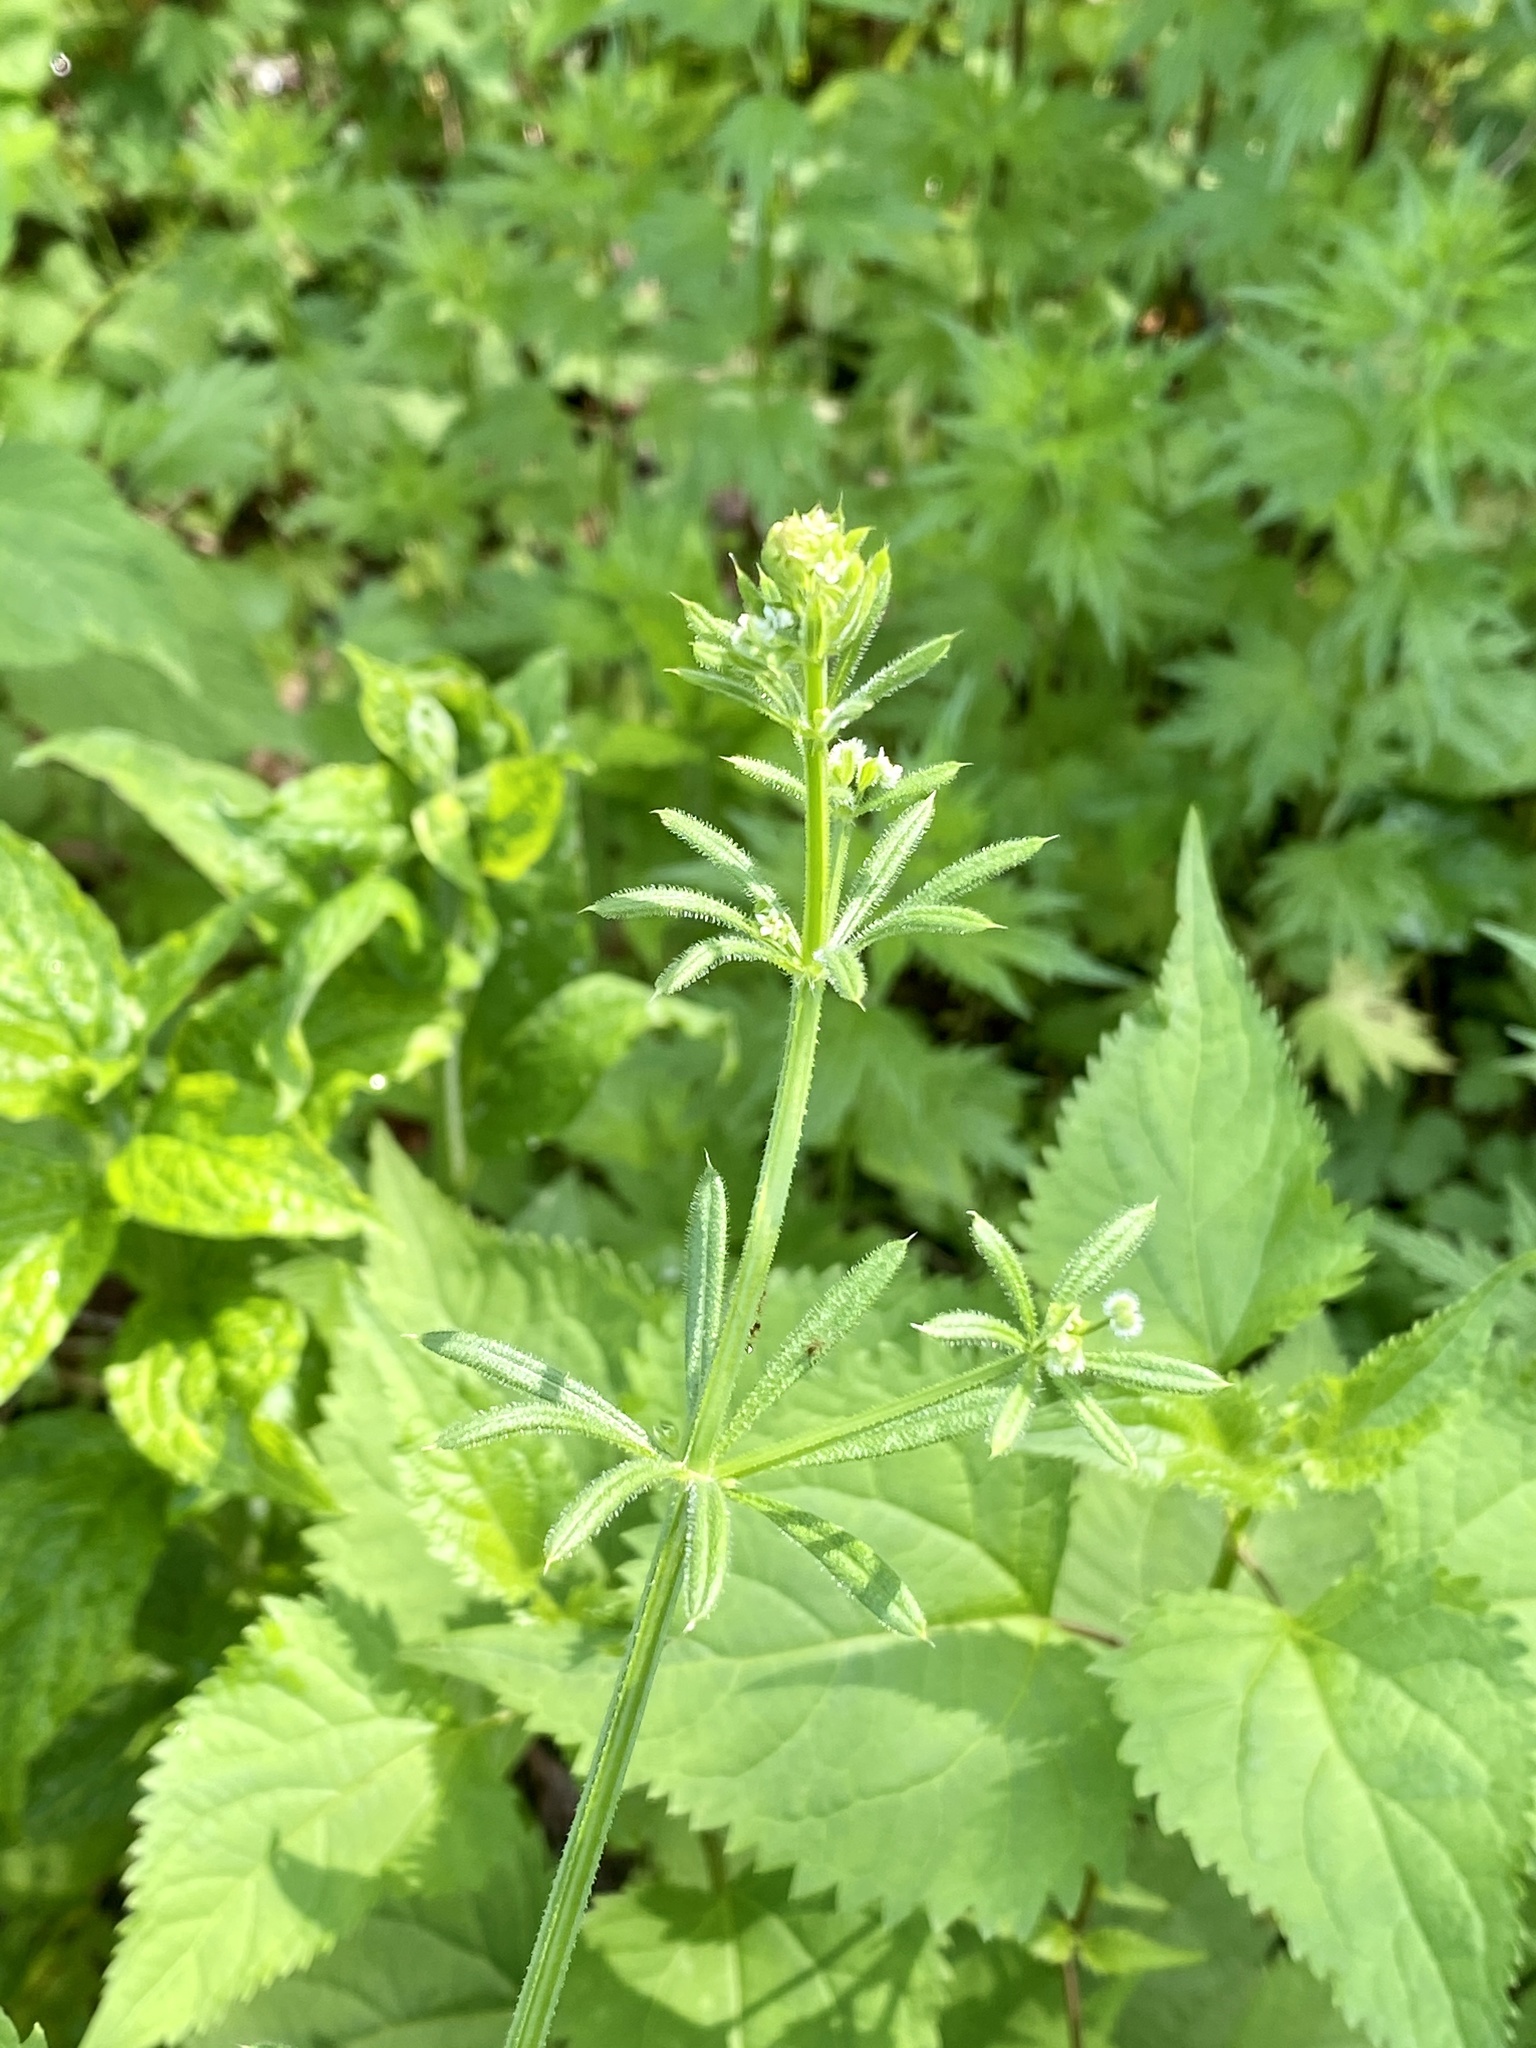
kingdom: Plantae
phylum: Tracheophyta
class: Magnoliopsida
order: Gentianales
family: Rubiaceae
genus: Galium
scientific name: Galium aparine
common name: Cleavers
